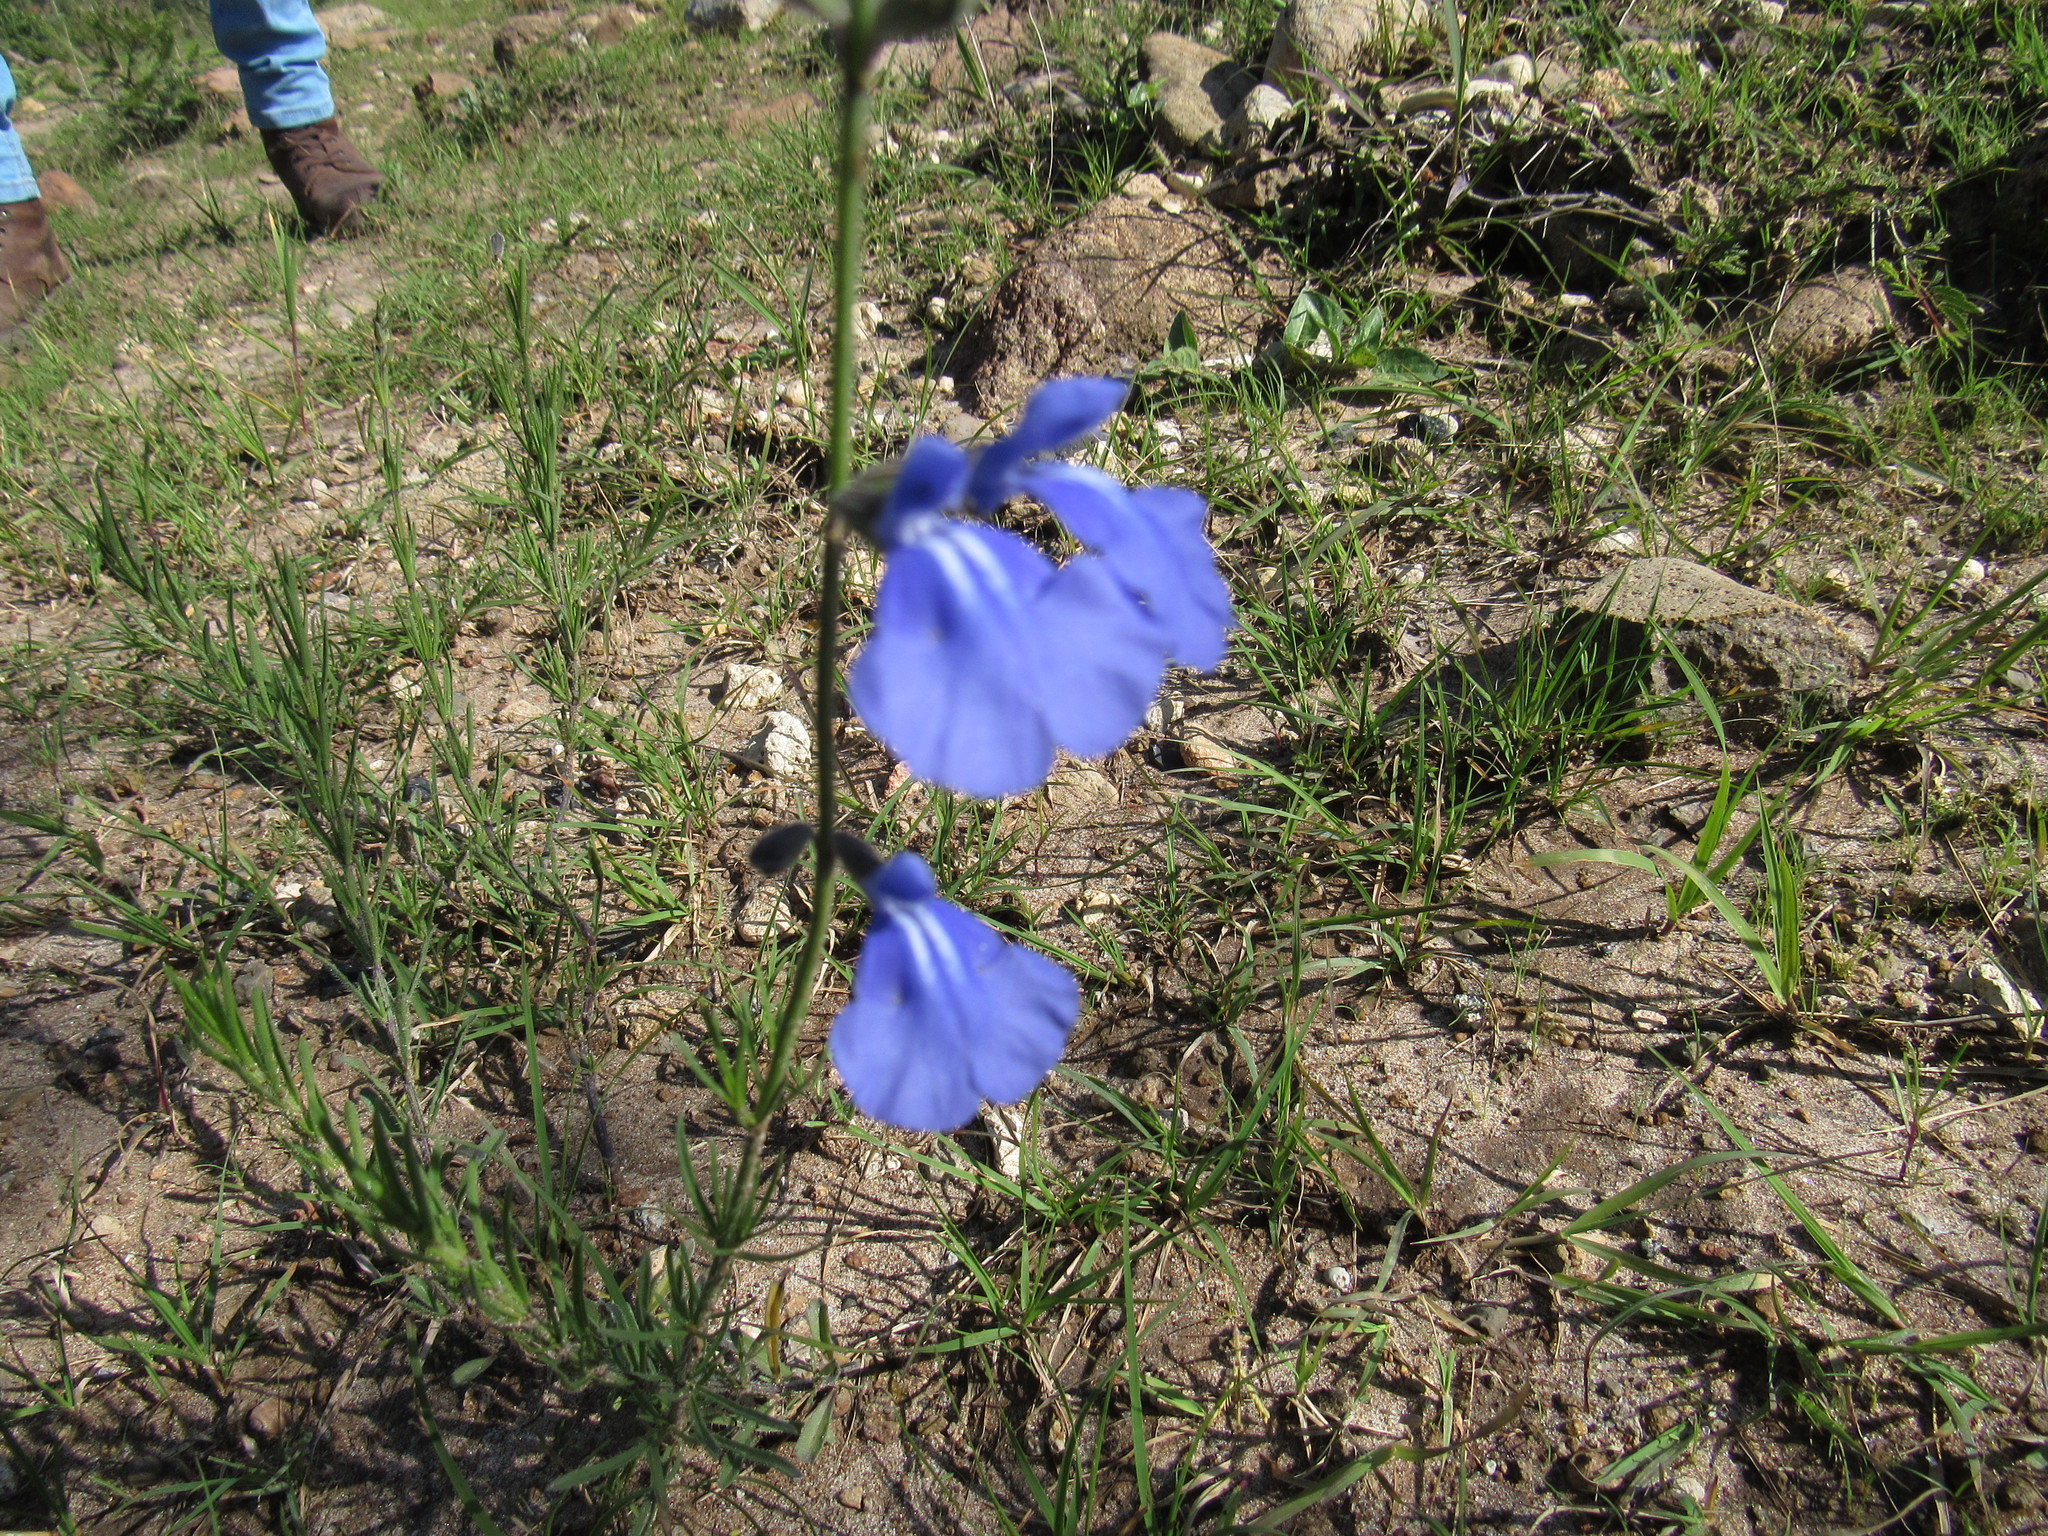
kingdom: Plantae
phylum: Tracheophyta
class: Magnoliopsida
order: Lamiales
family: Lamiaceae
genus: Salvia
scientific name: Salvia reptans
